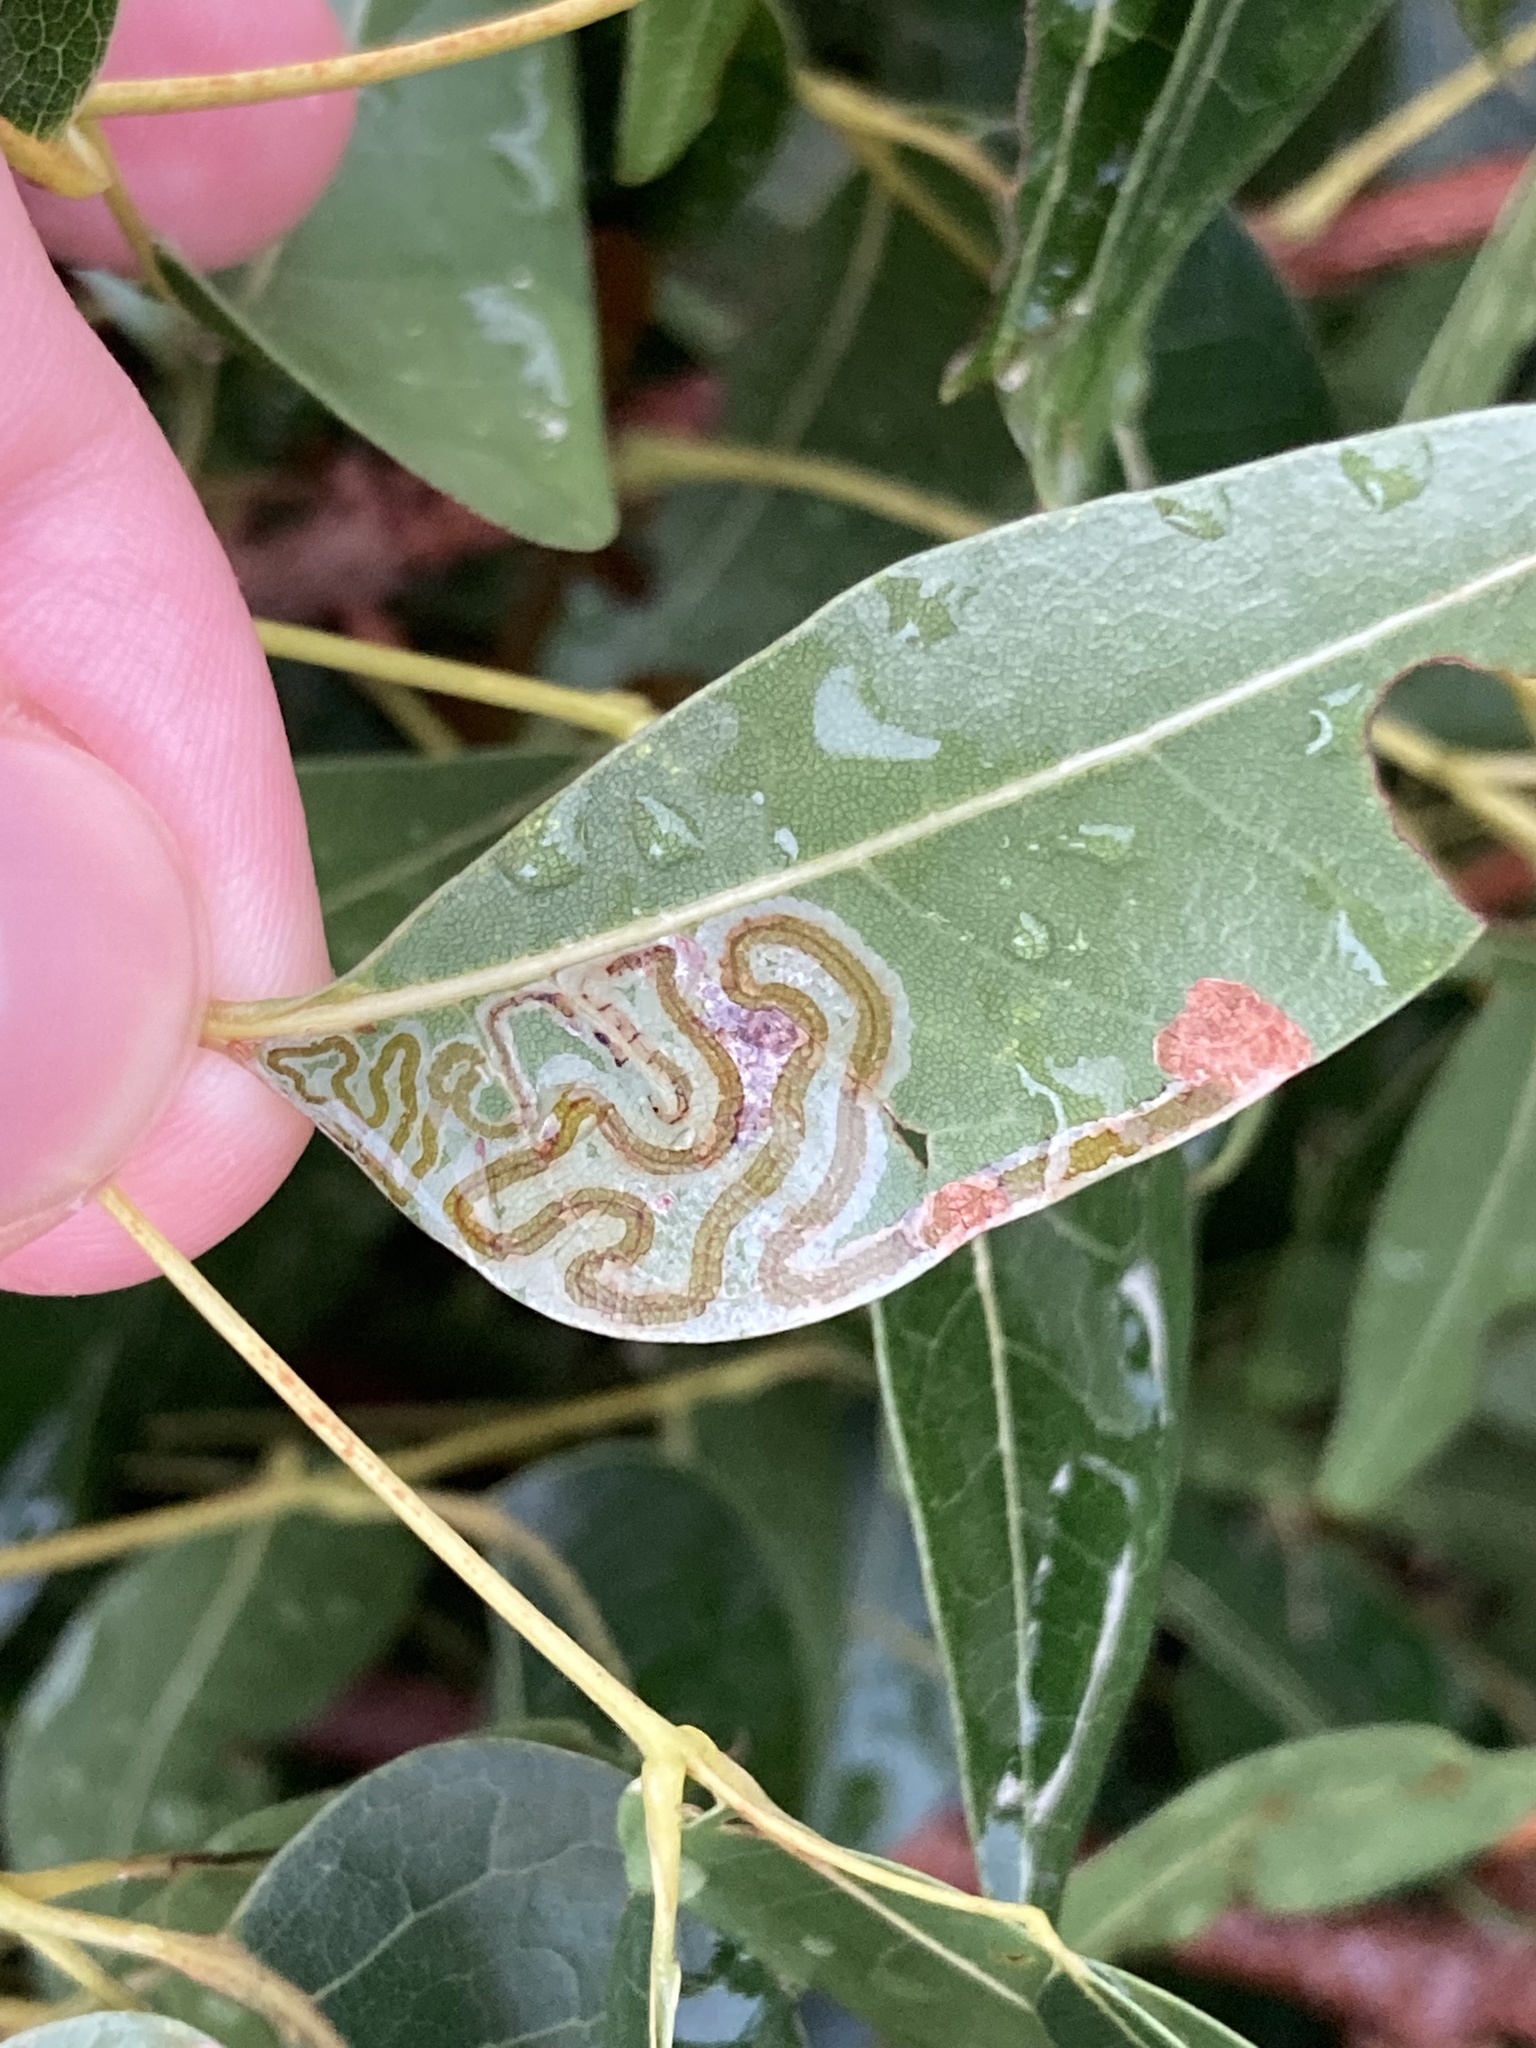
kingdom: Animalia
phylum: Arthropoda
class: Insecta
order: Lepidoptera
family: Gracillariidae
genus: Phyllocnistis
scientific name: Phyllocnistis meliacella
